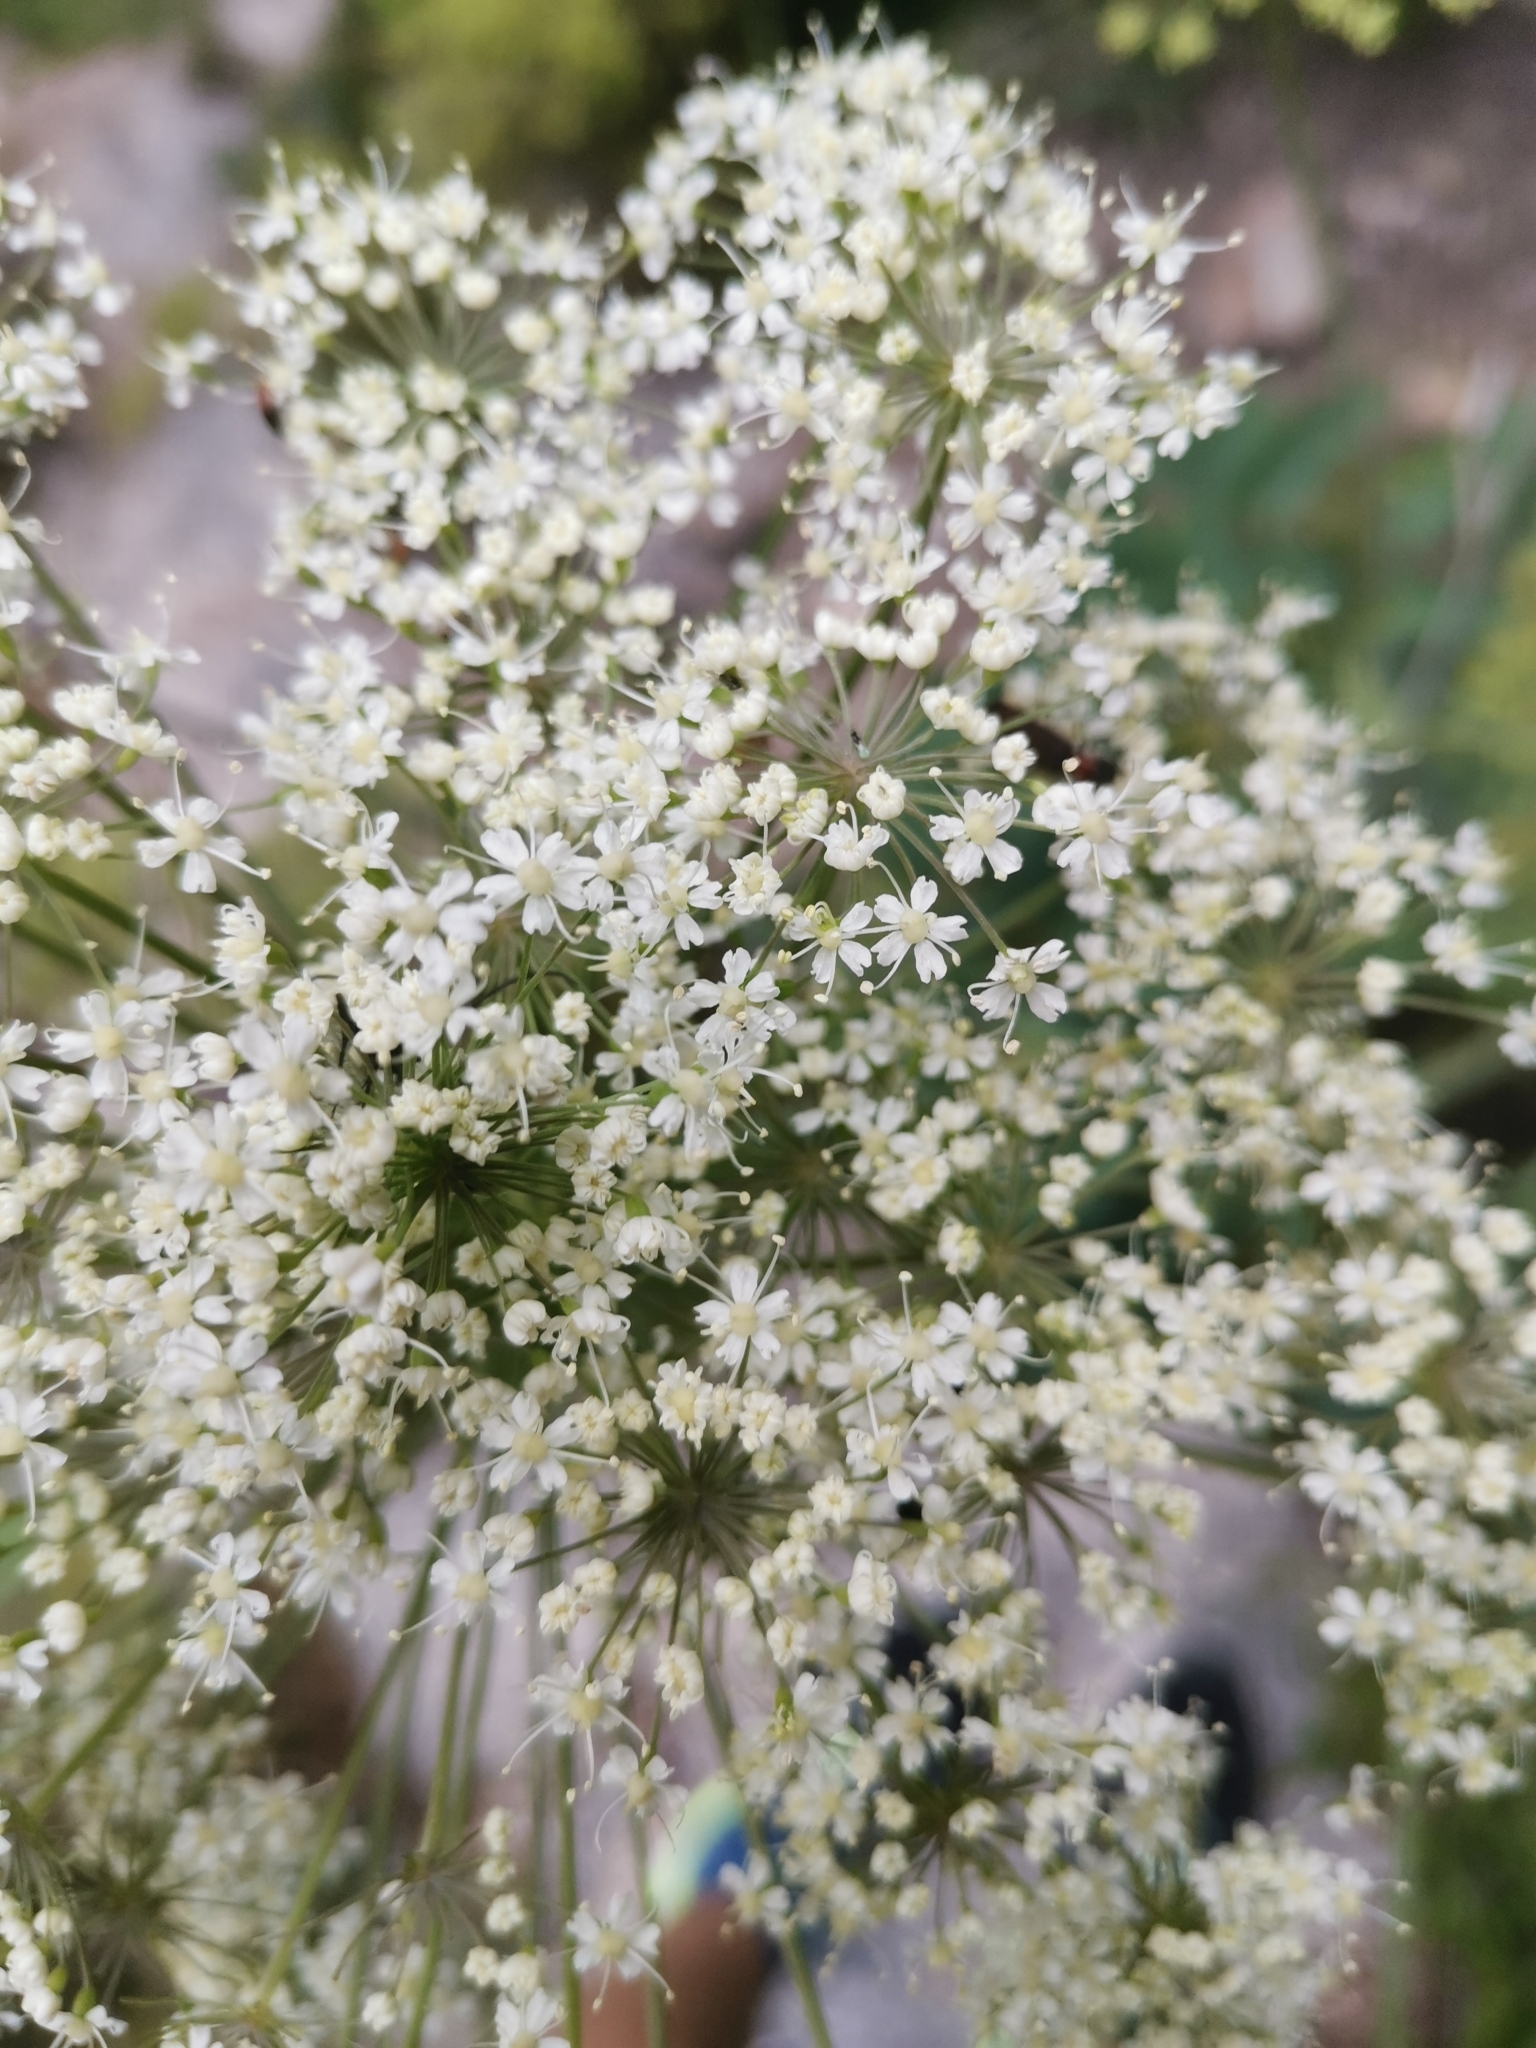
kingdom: Plantae
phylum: Tracheophyta
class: Magnoliopsida
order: Apiales
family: Apiaceae
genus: Laserpitium
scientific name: Laserpitium latifolium
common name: Broadleaf sermountain
